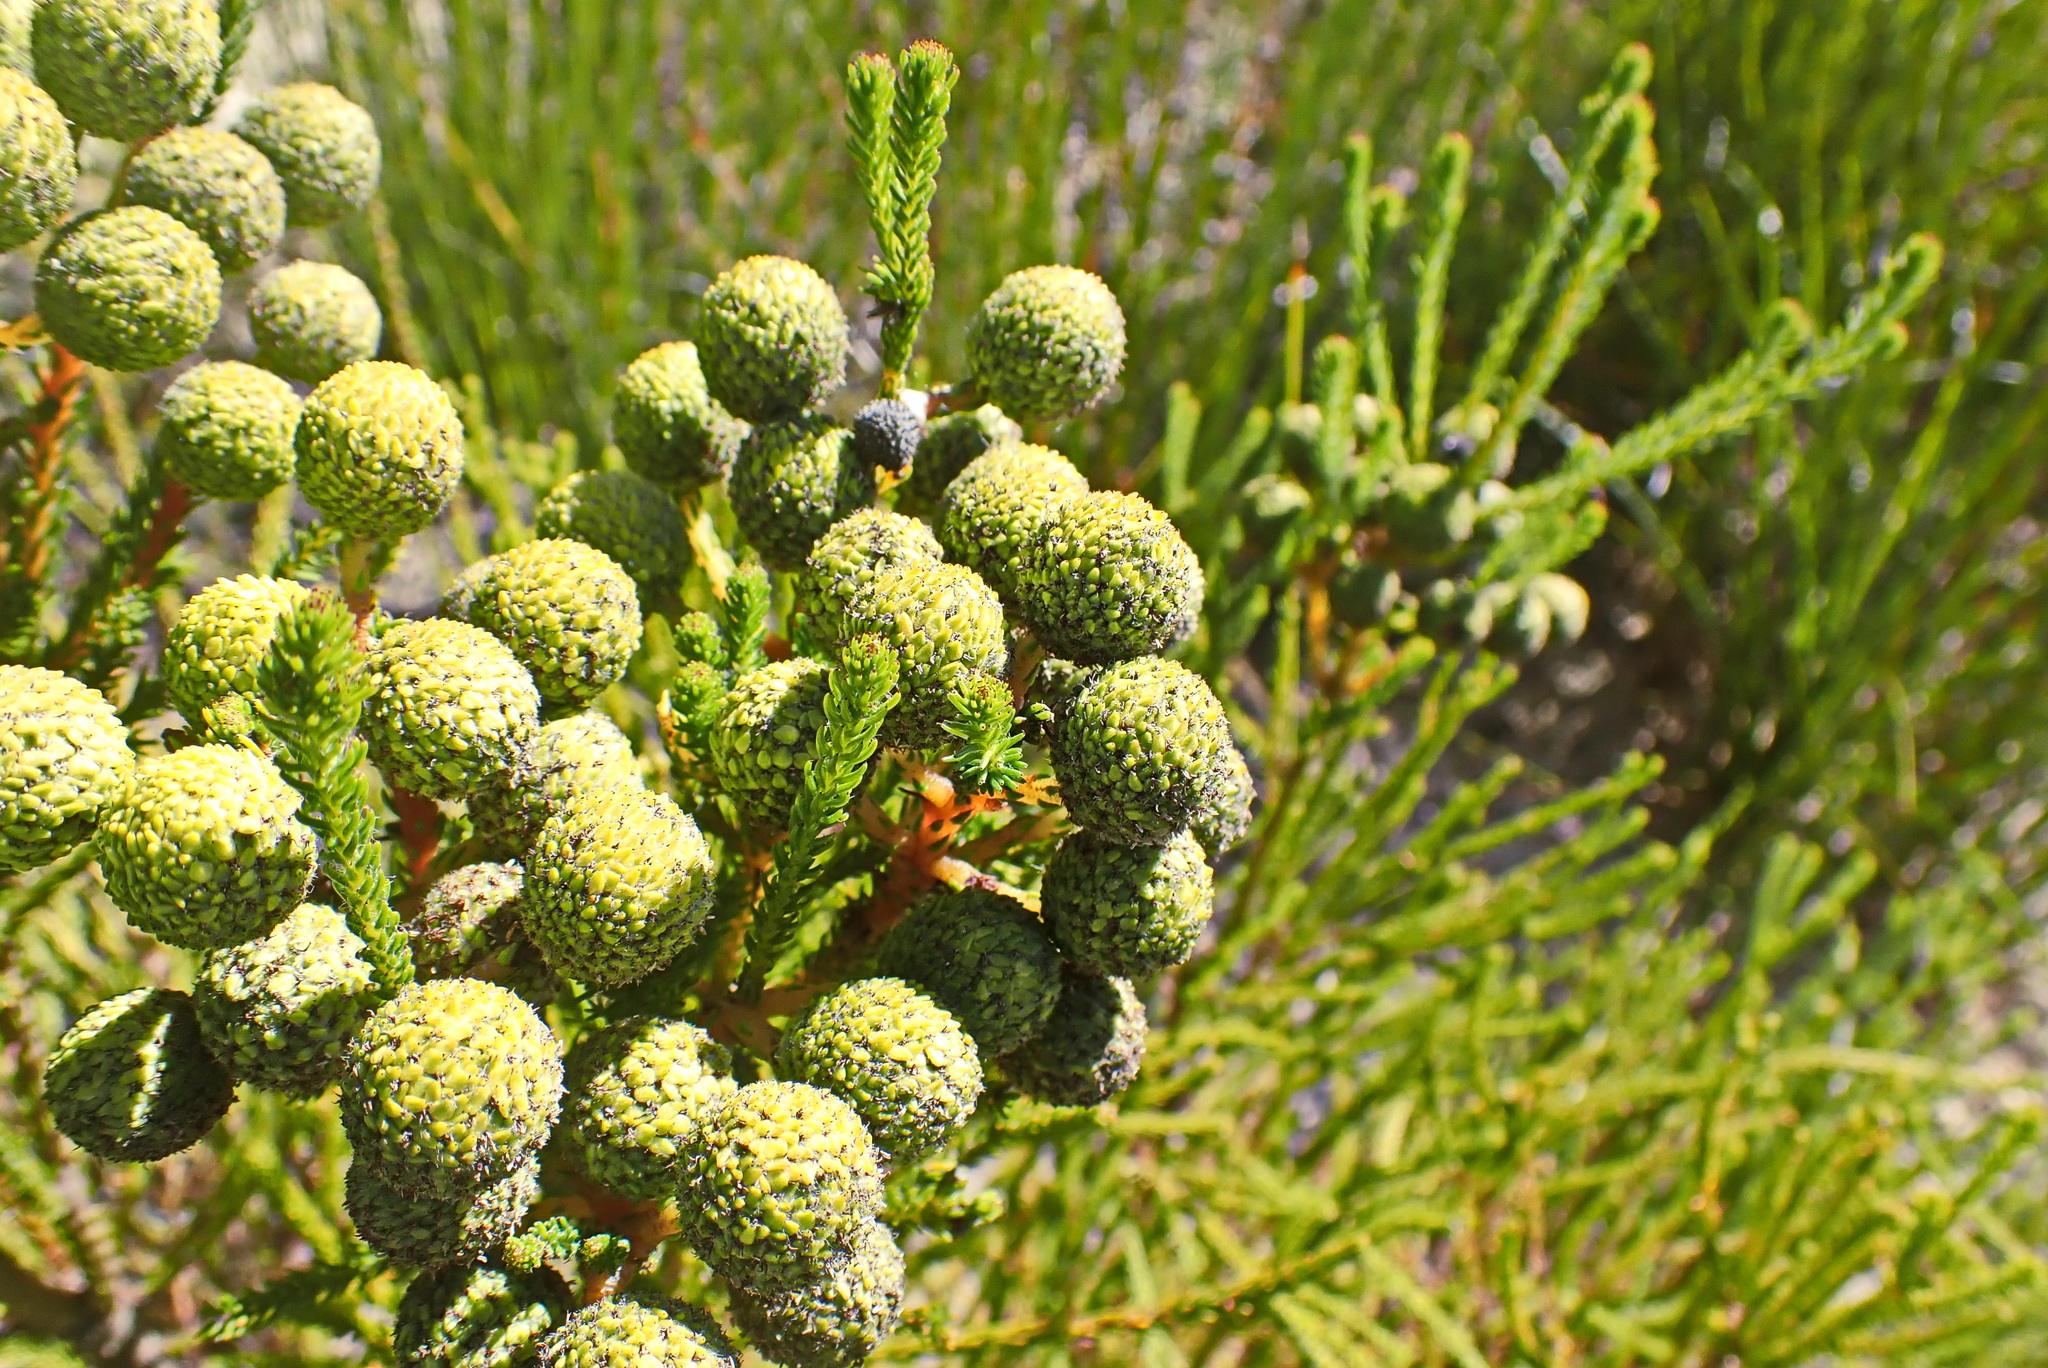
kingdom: Plantae
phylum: Tracheophyta
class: Magnoliopsida
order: Bruniales
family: Bruniaceae
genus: Berzelia
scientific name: Berzelia intermedia
